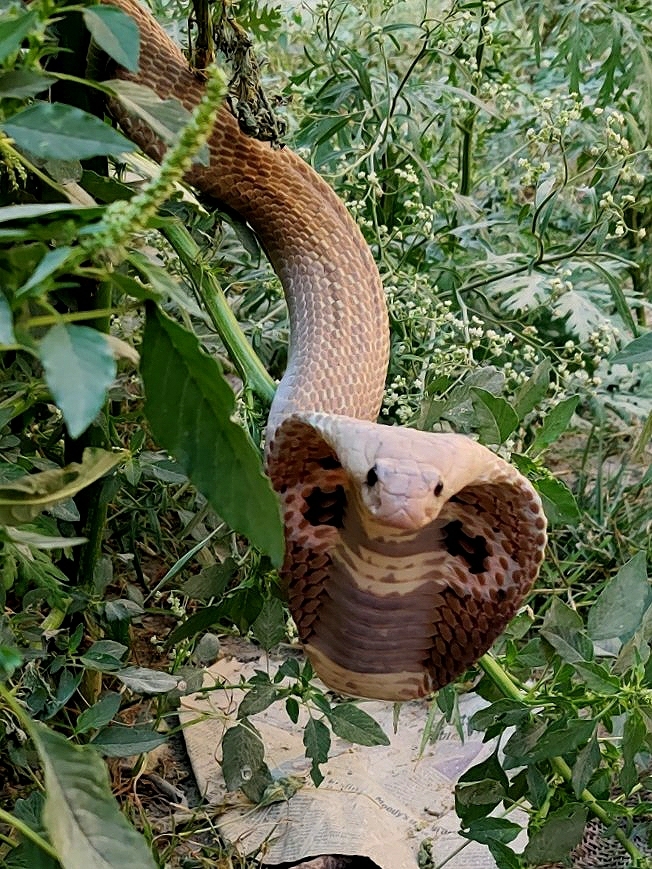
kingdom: Animalia
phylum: Chordata
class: Squamata
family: Elapidae
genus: Naja
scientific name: Naja naja
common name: Indian cobra
